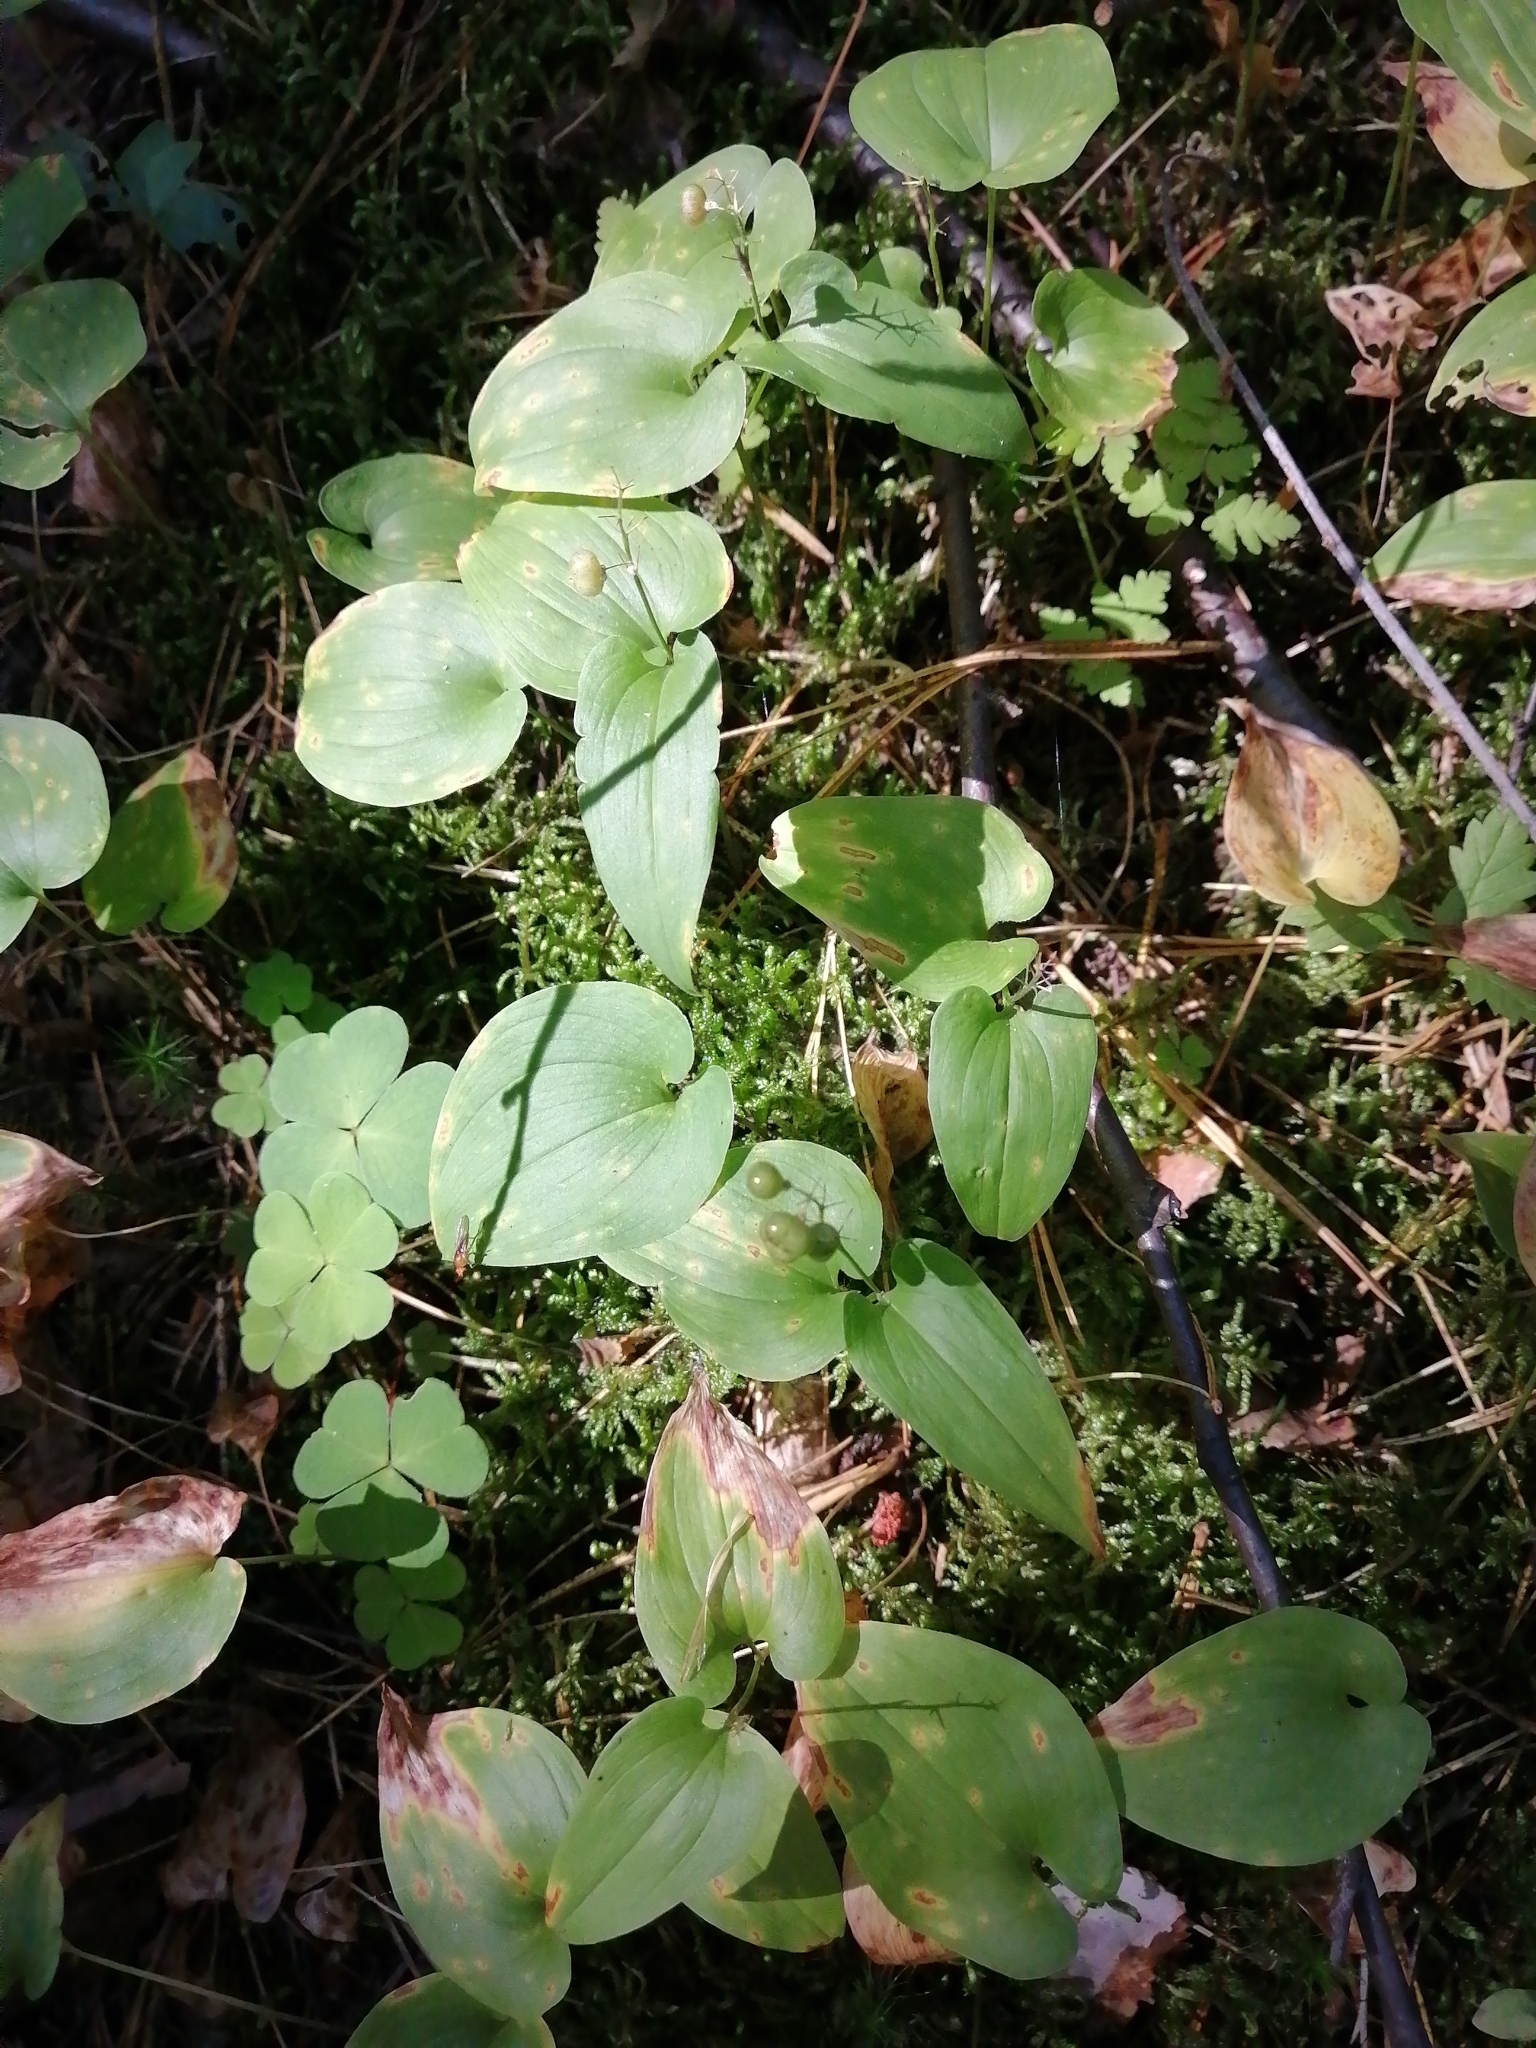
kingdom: Plantae
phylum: Tracheophyta
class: Liliopsida
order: Asparagales
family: Asparagaceae
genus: Maianthemum
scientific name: Maianthemum bifolium
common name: May lily
